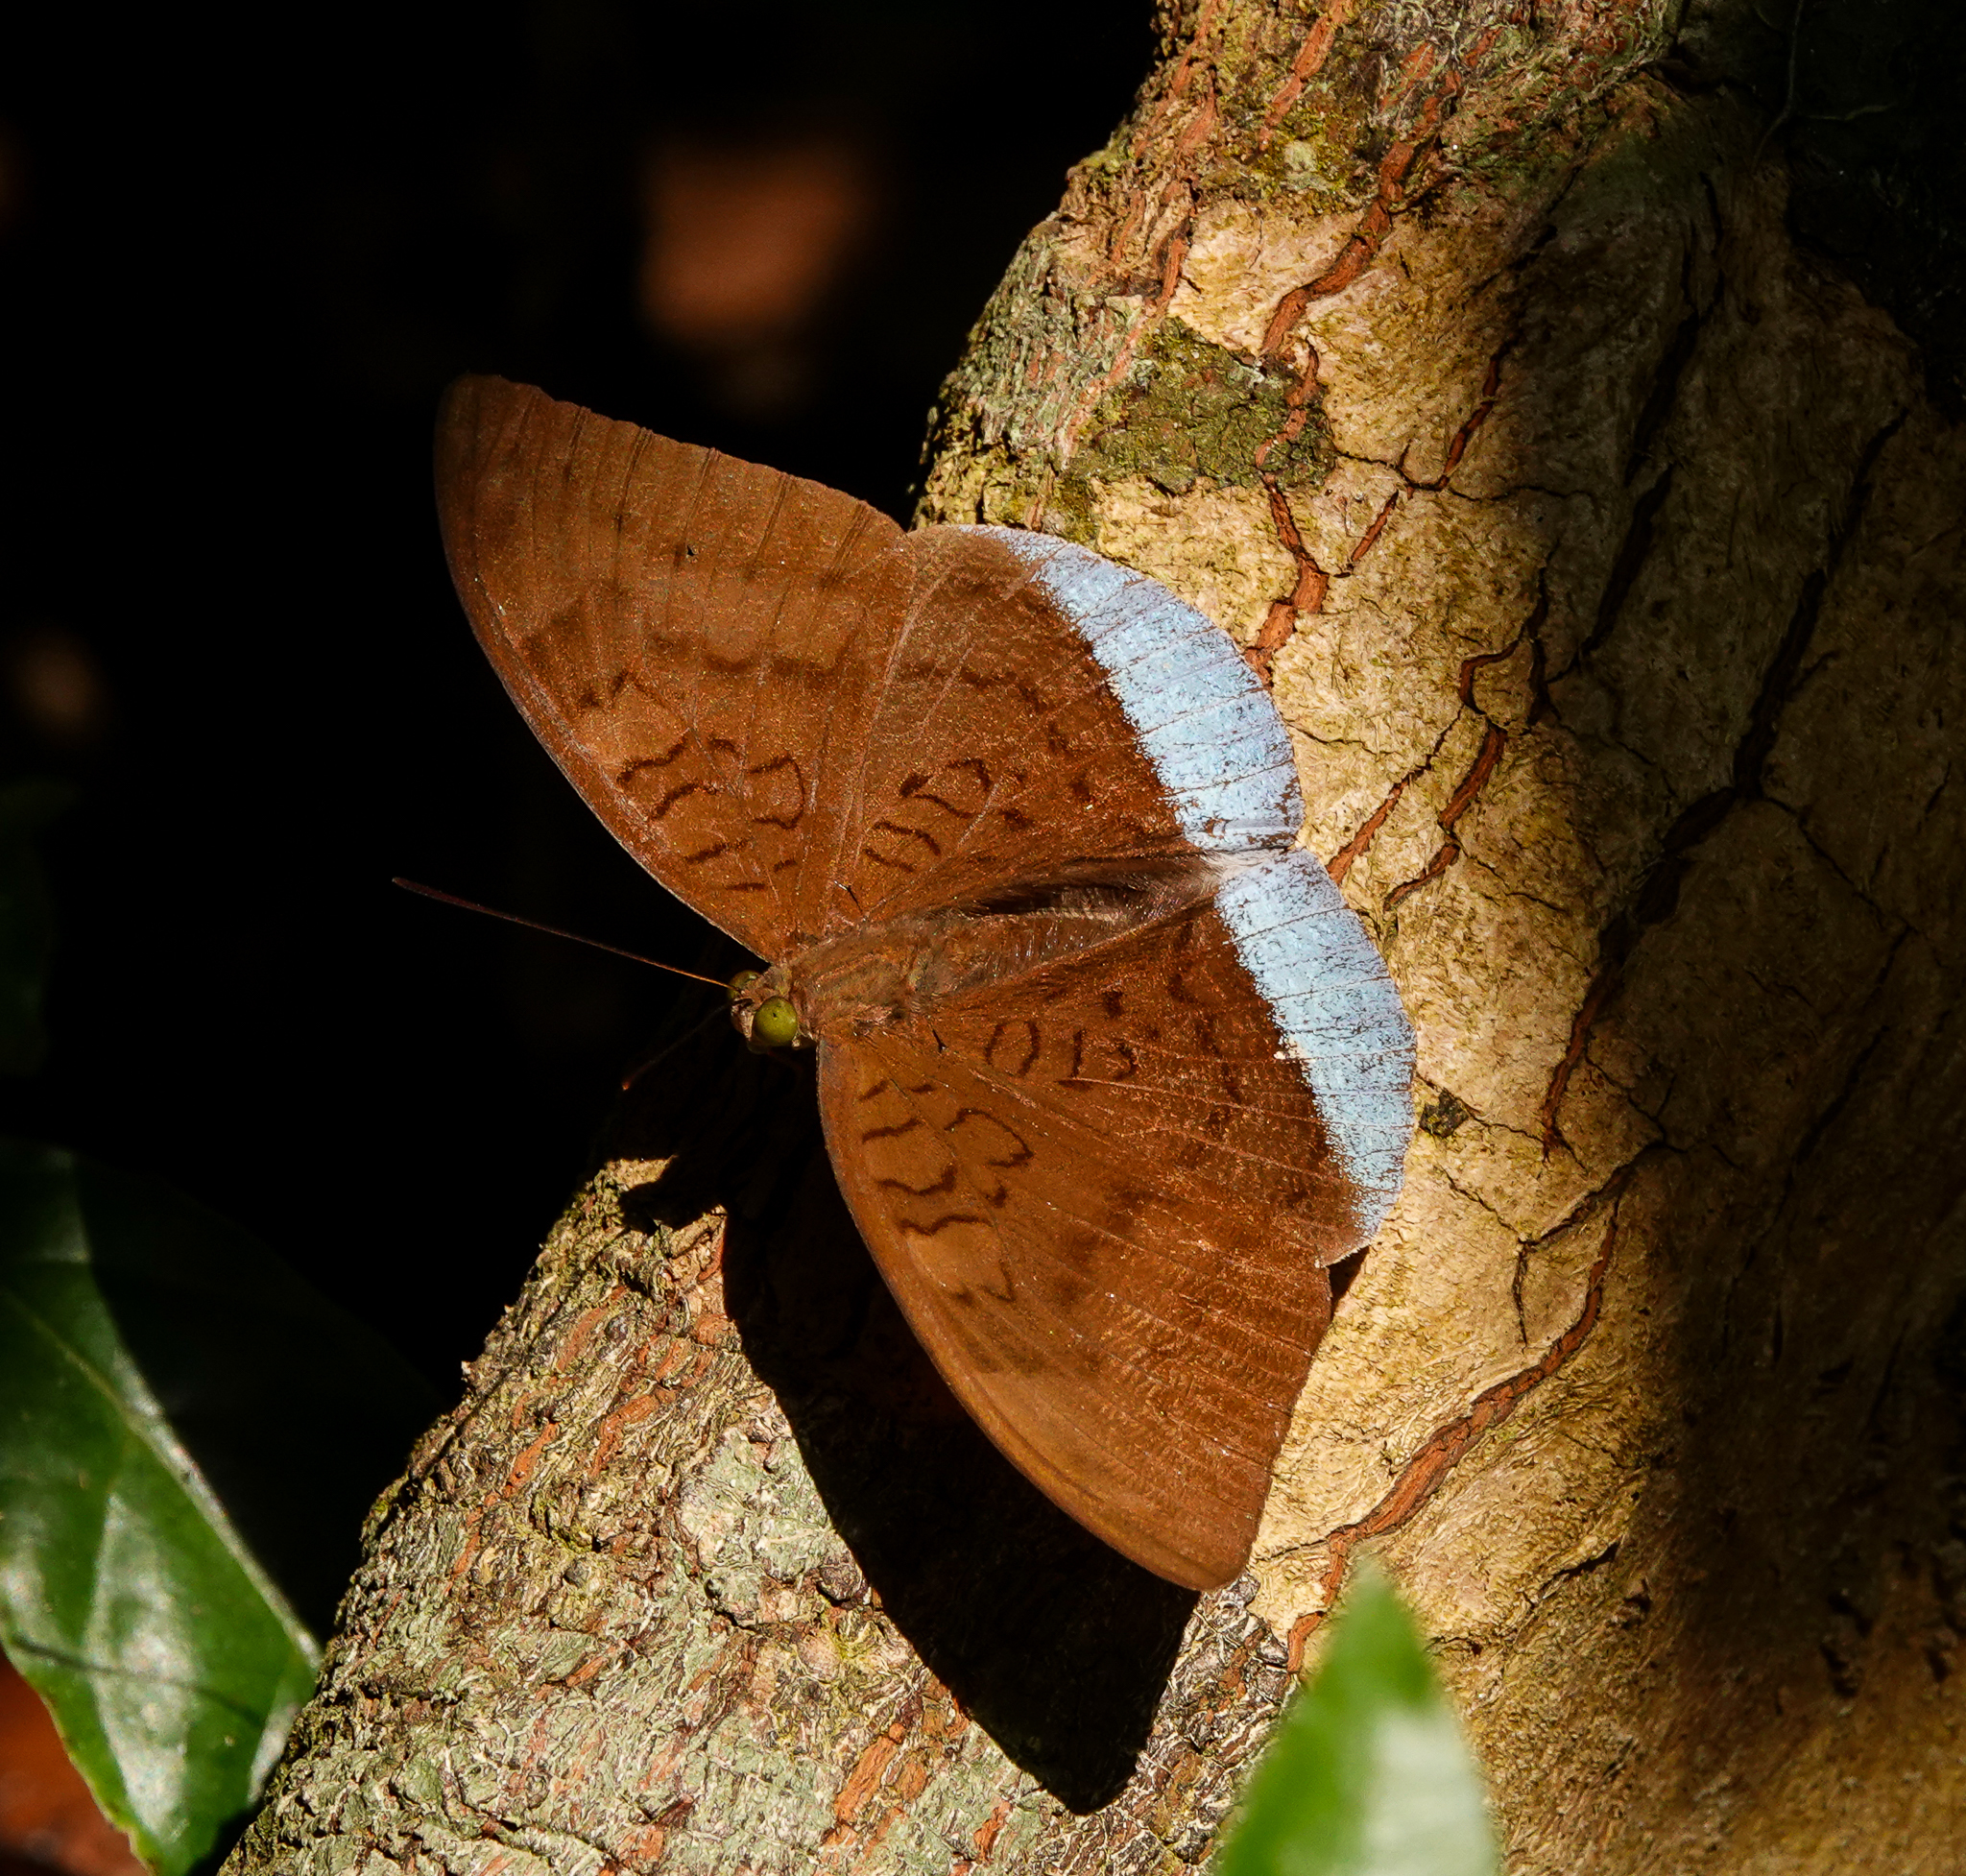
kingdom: Animalia
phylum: Arthropoda
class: Insecta
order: Lepidoptera
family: Nymphalidae
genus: Tanaecia
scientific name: Tanaecia julii
